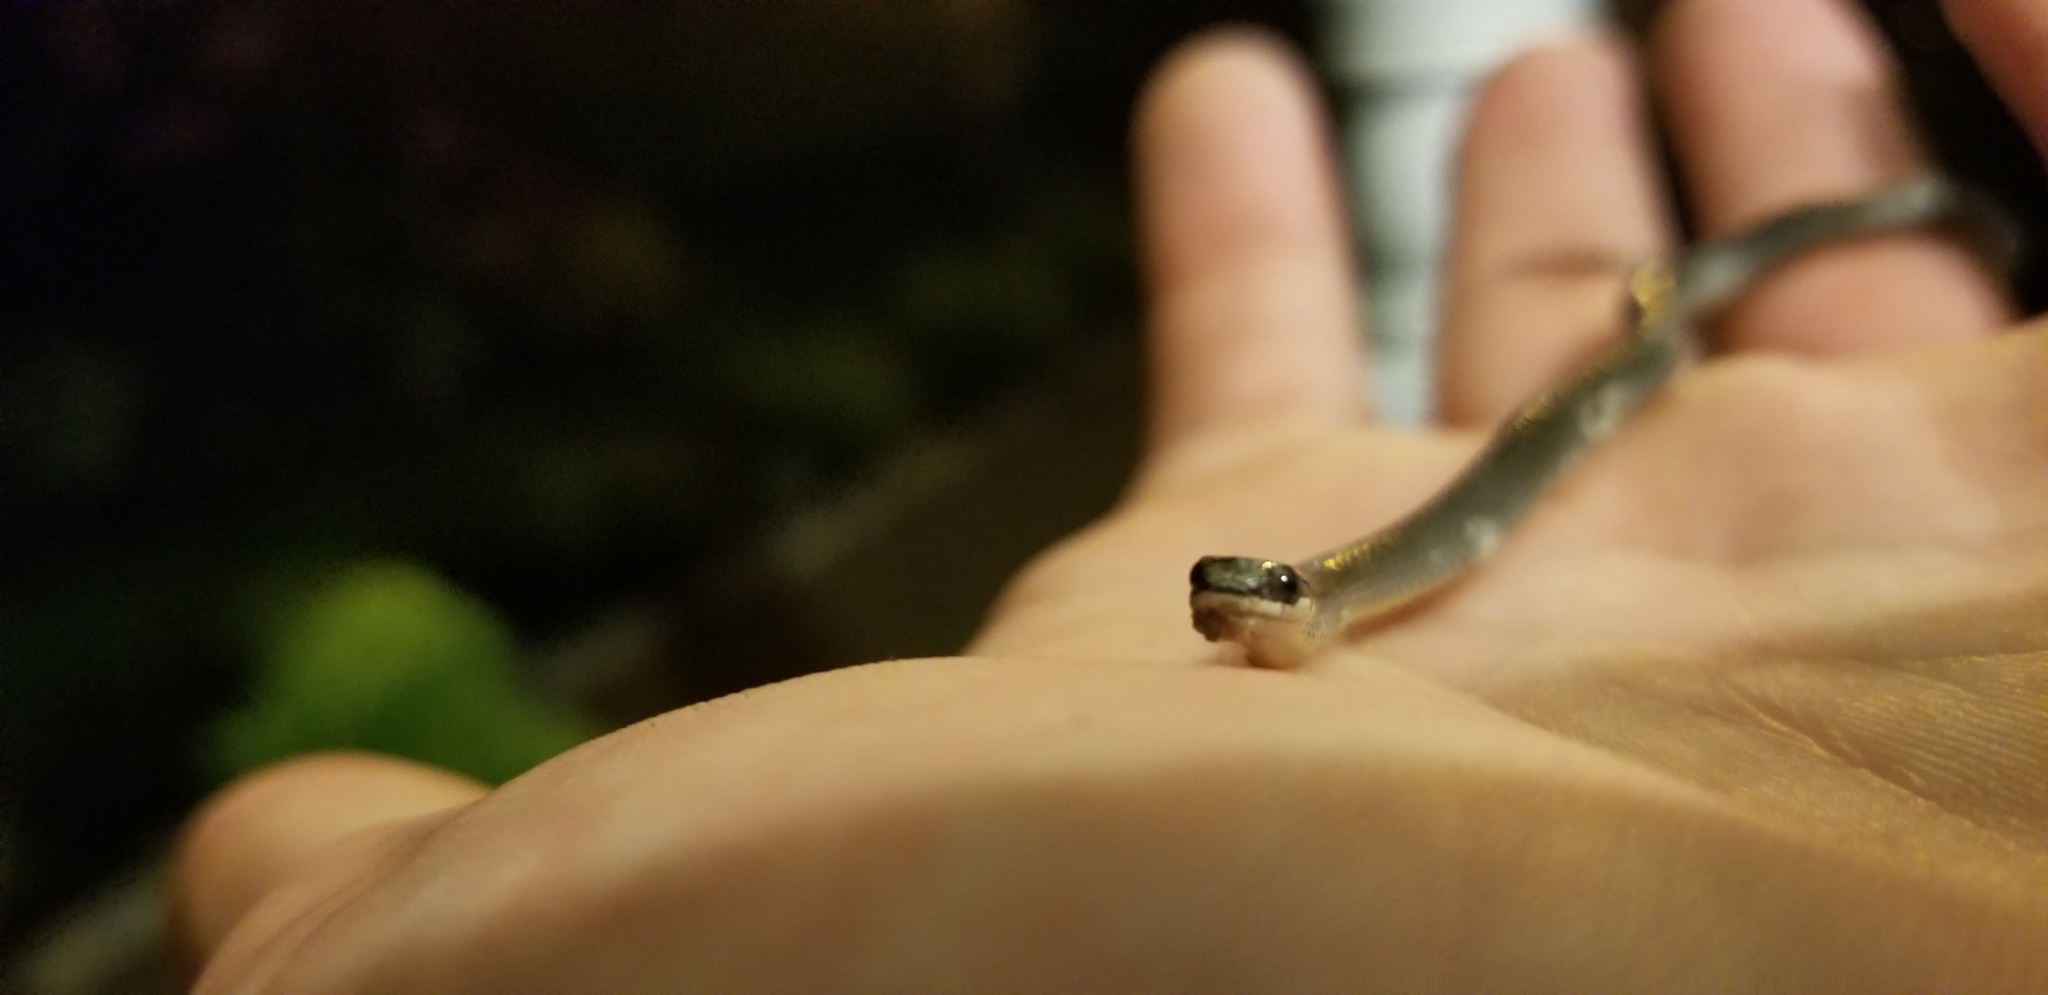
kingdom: Animalia
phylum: Chordata
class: Squamata
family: Colubridae
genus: Diadophis
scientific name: Diadophis punctatus
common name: Ringneck snake
